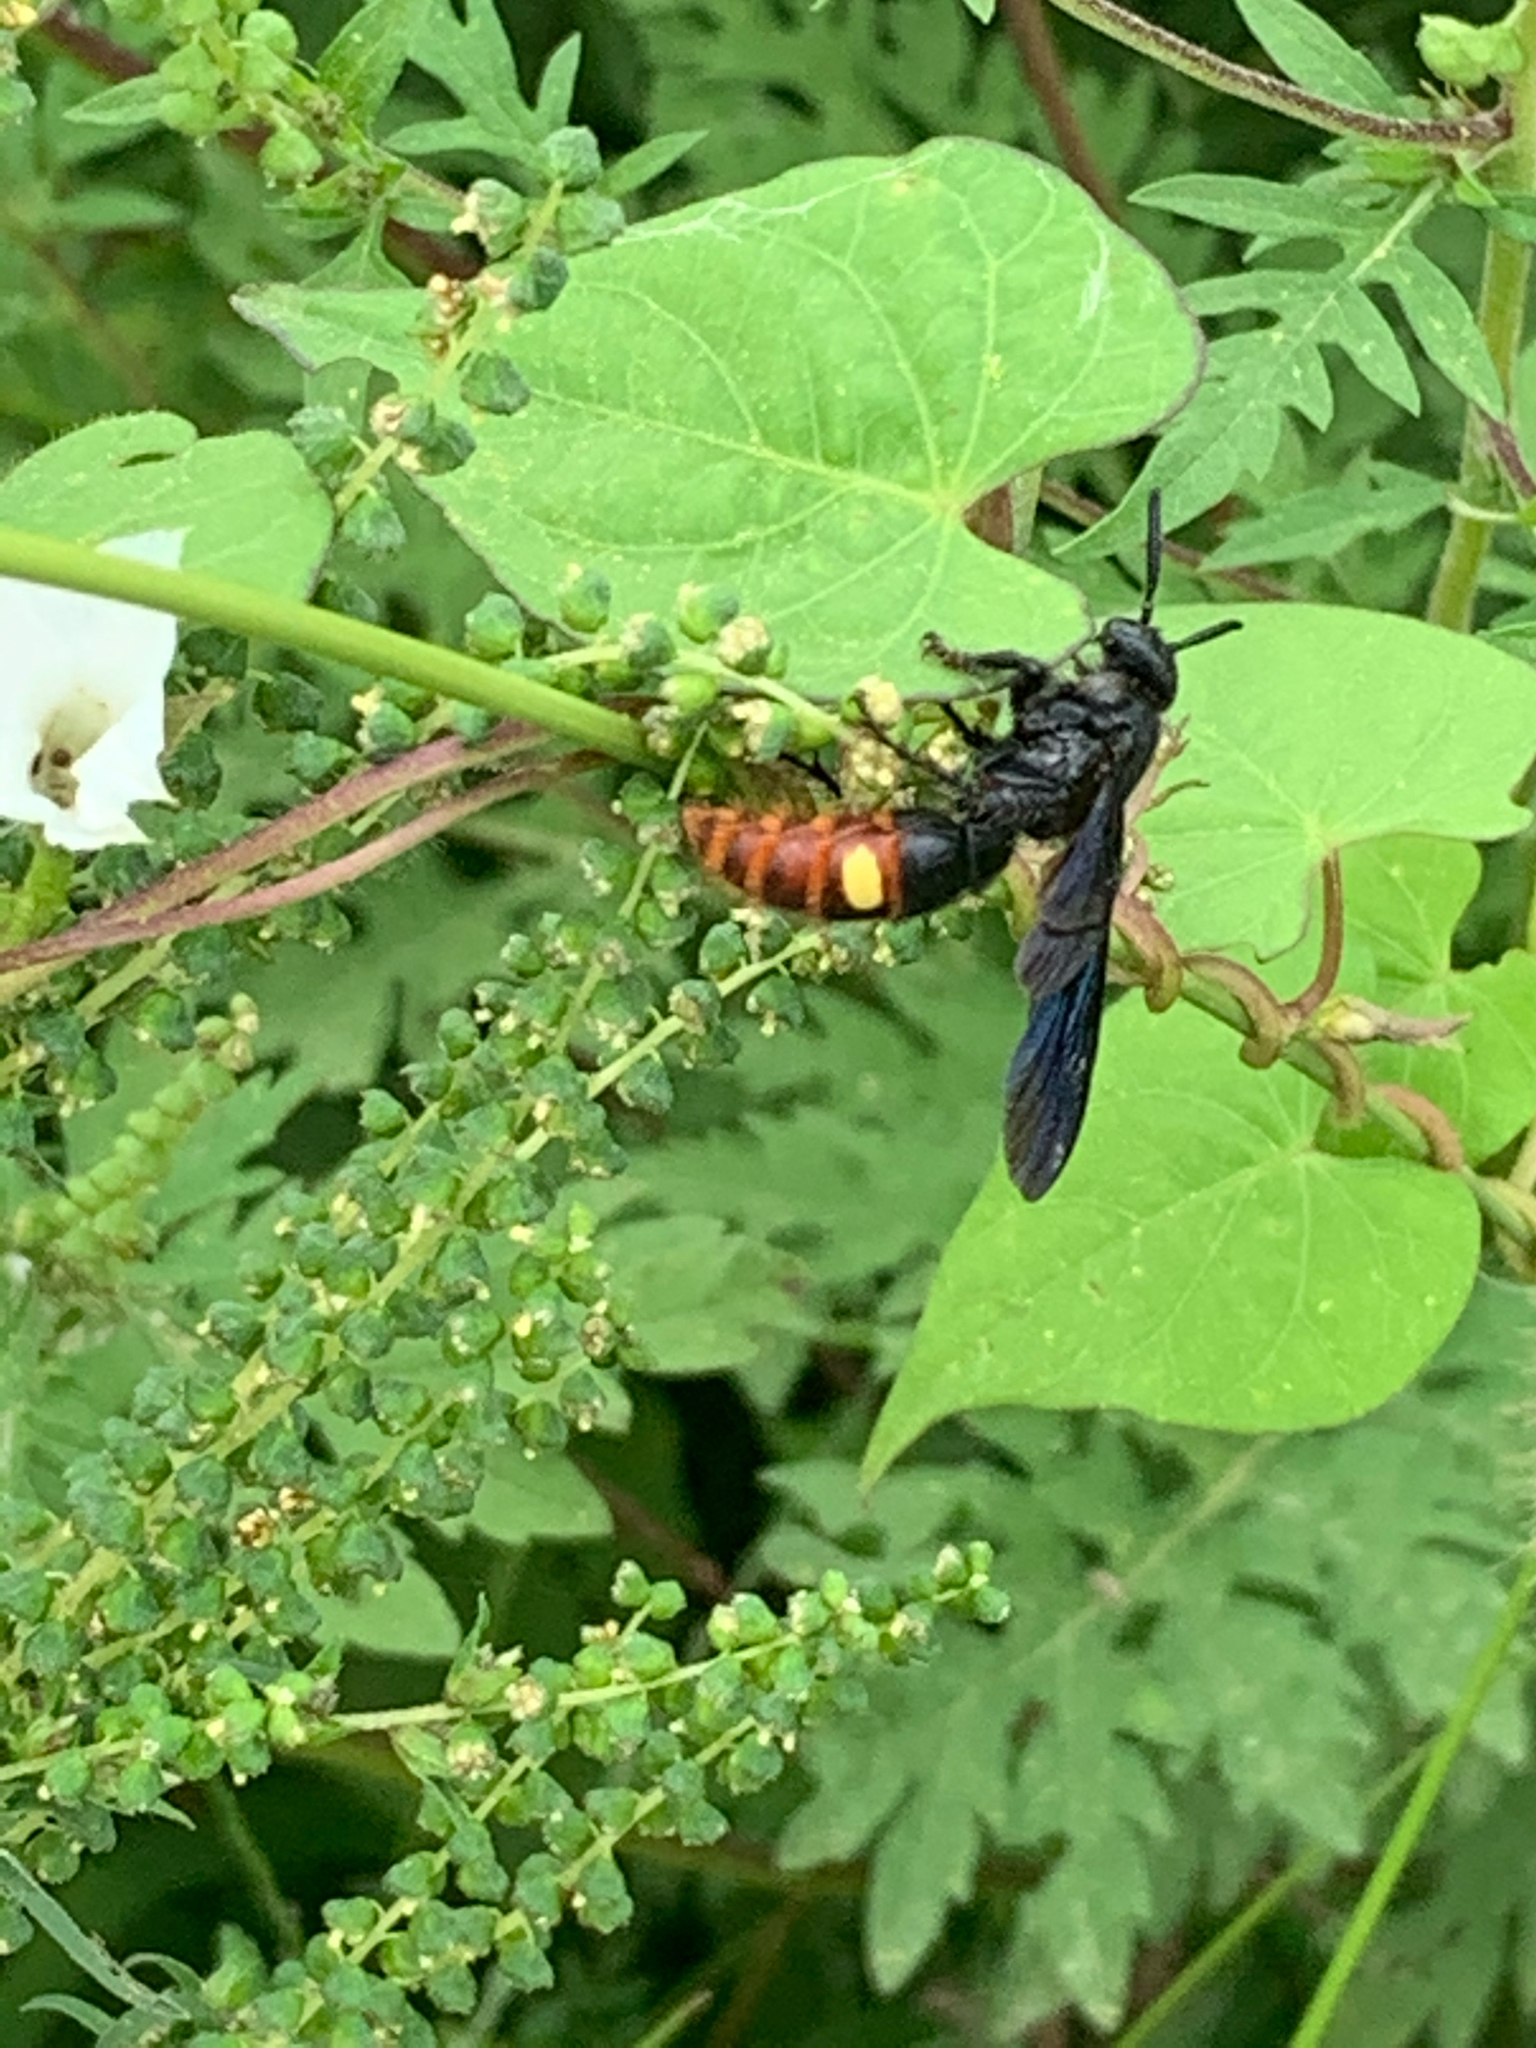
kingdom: Animalia
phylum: Arthropoda
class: Insecta
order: Hymenoptera
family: Scoliidae
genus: Scolia
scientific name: Scolia dubia
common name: Blue-winged scoliid wasp
